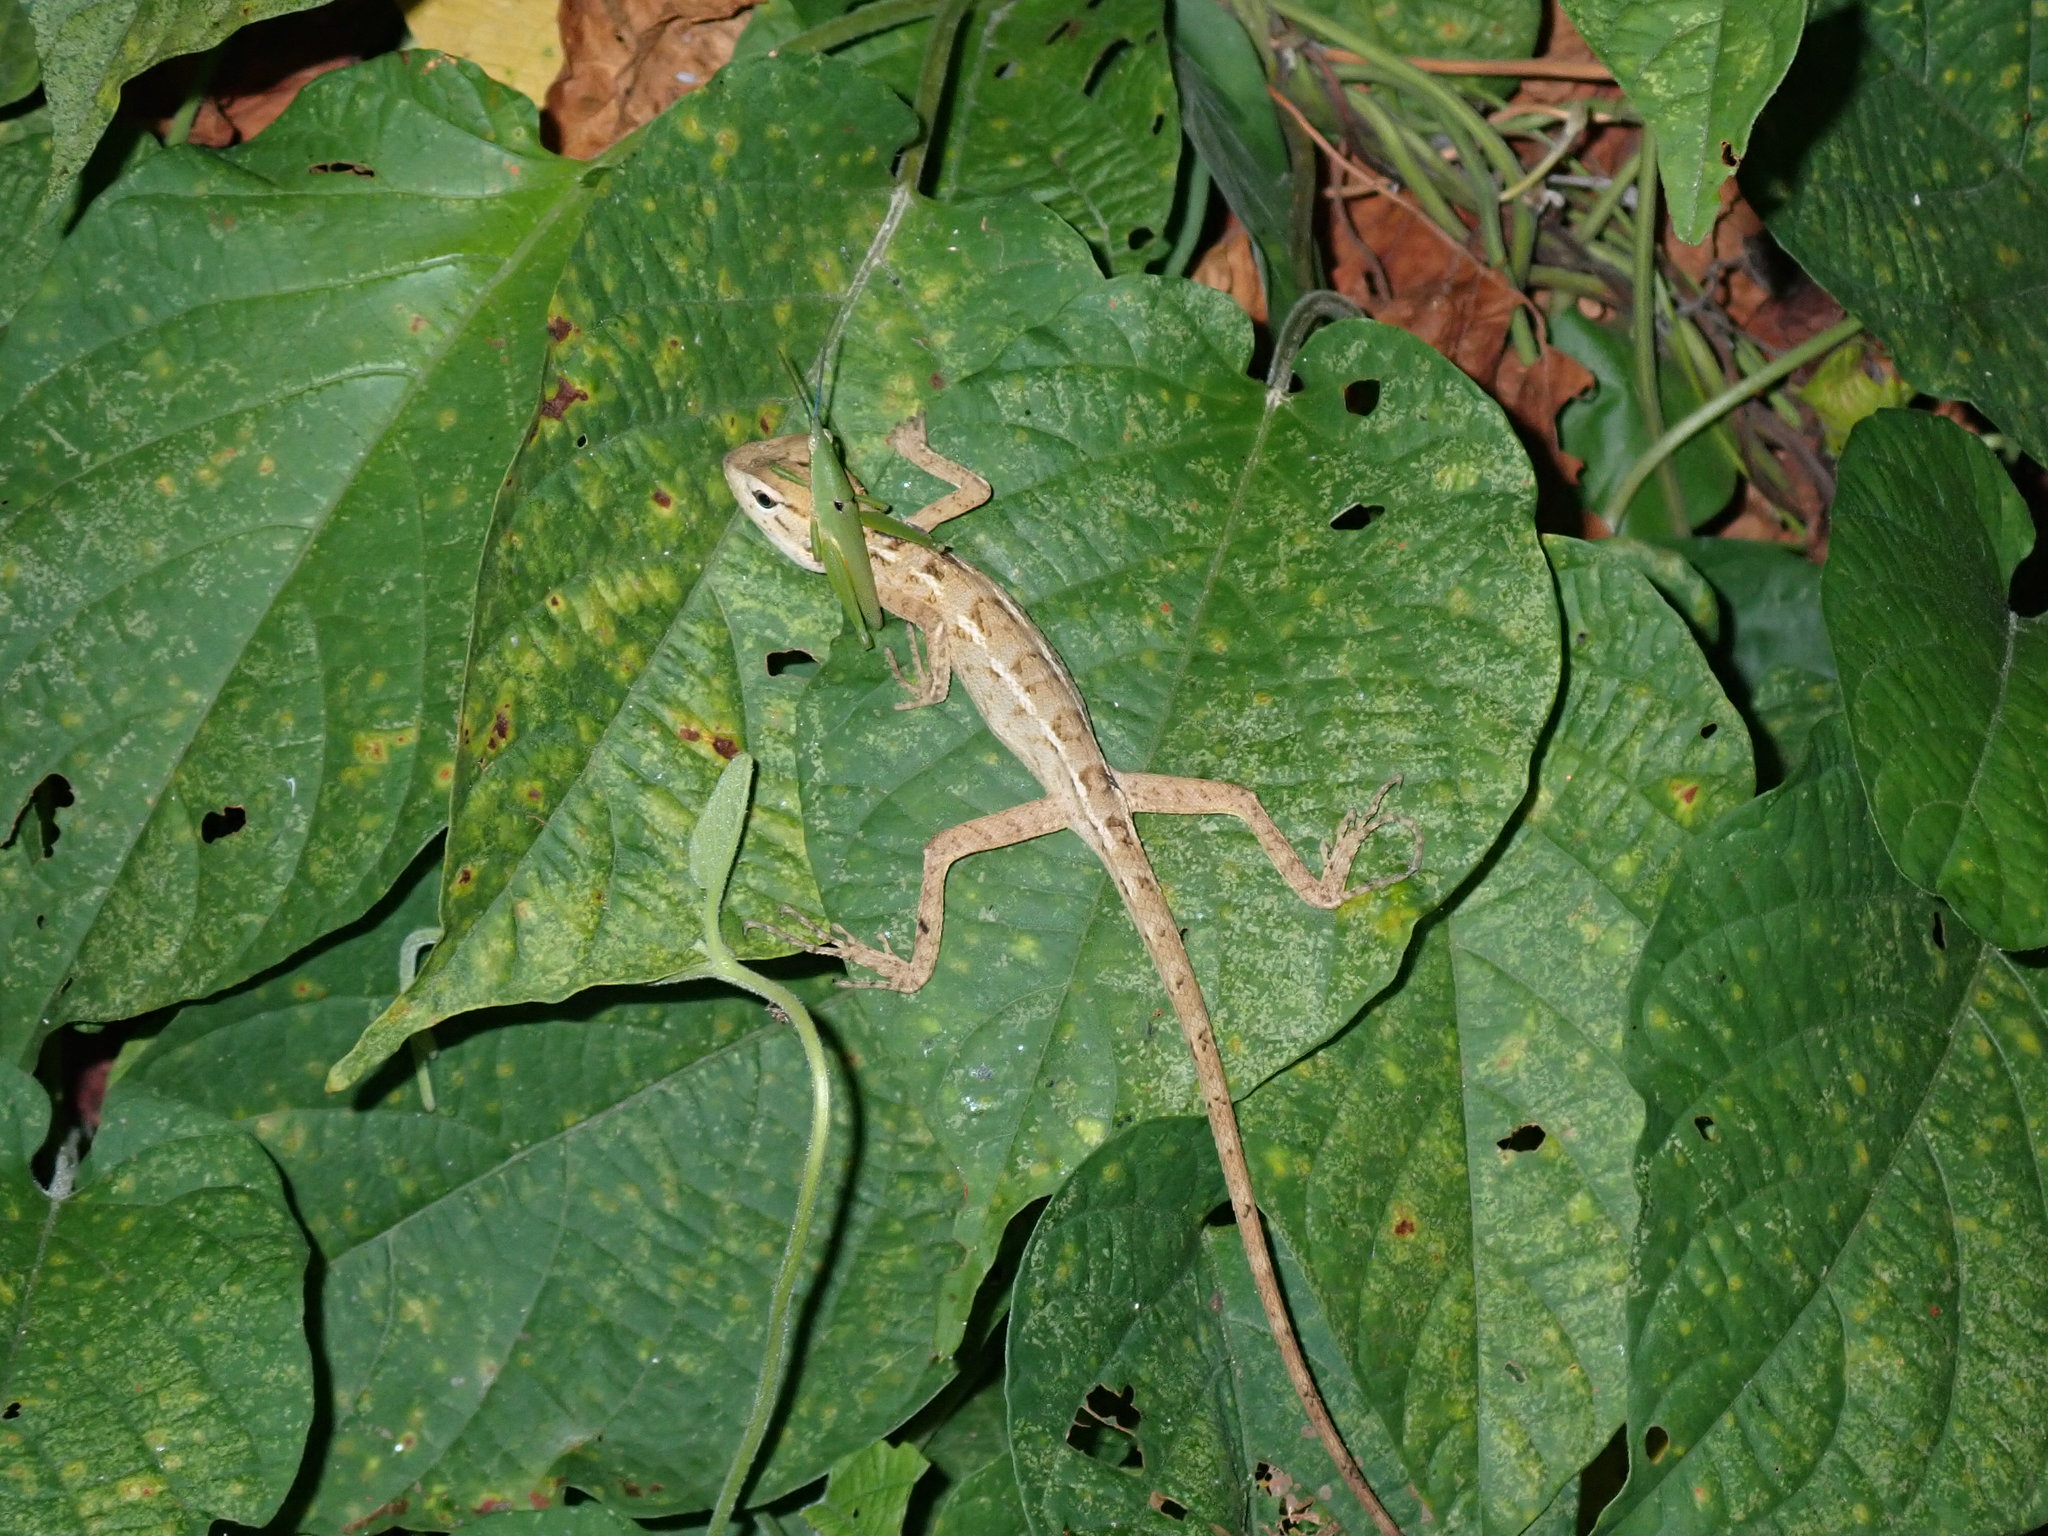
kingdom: Animalia
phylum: Chordata
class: Squamata
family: Agamidae
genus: Calotes
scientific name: Calotes versicolor
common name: Oriental garden lizard
